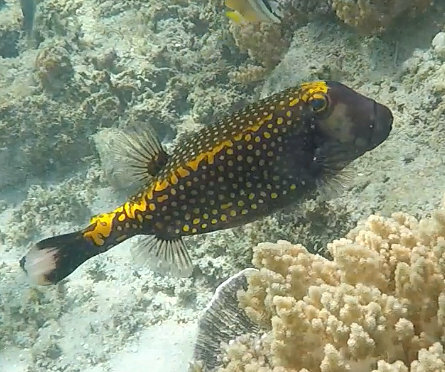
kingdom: Animalia
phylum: Chordata
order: Tetraodontiformes
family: Ostraciidae
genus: Ostracion
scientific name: Ostracion meleagris
